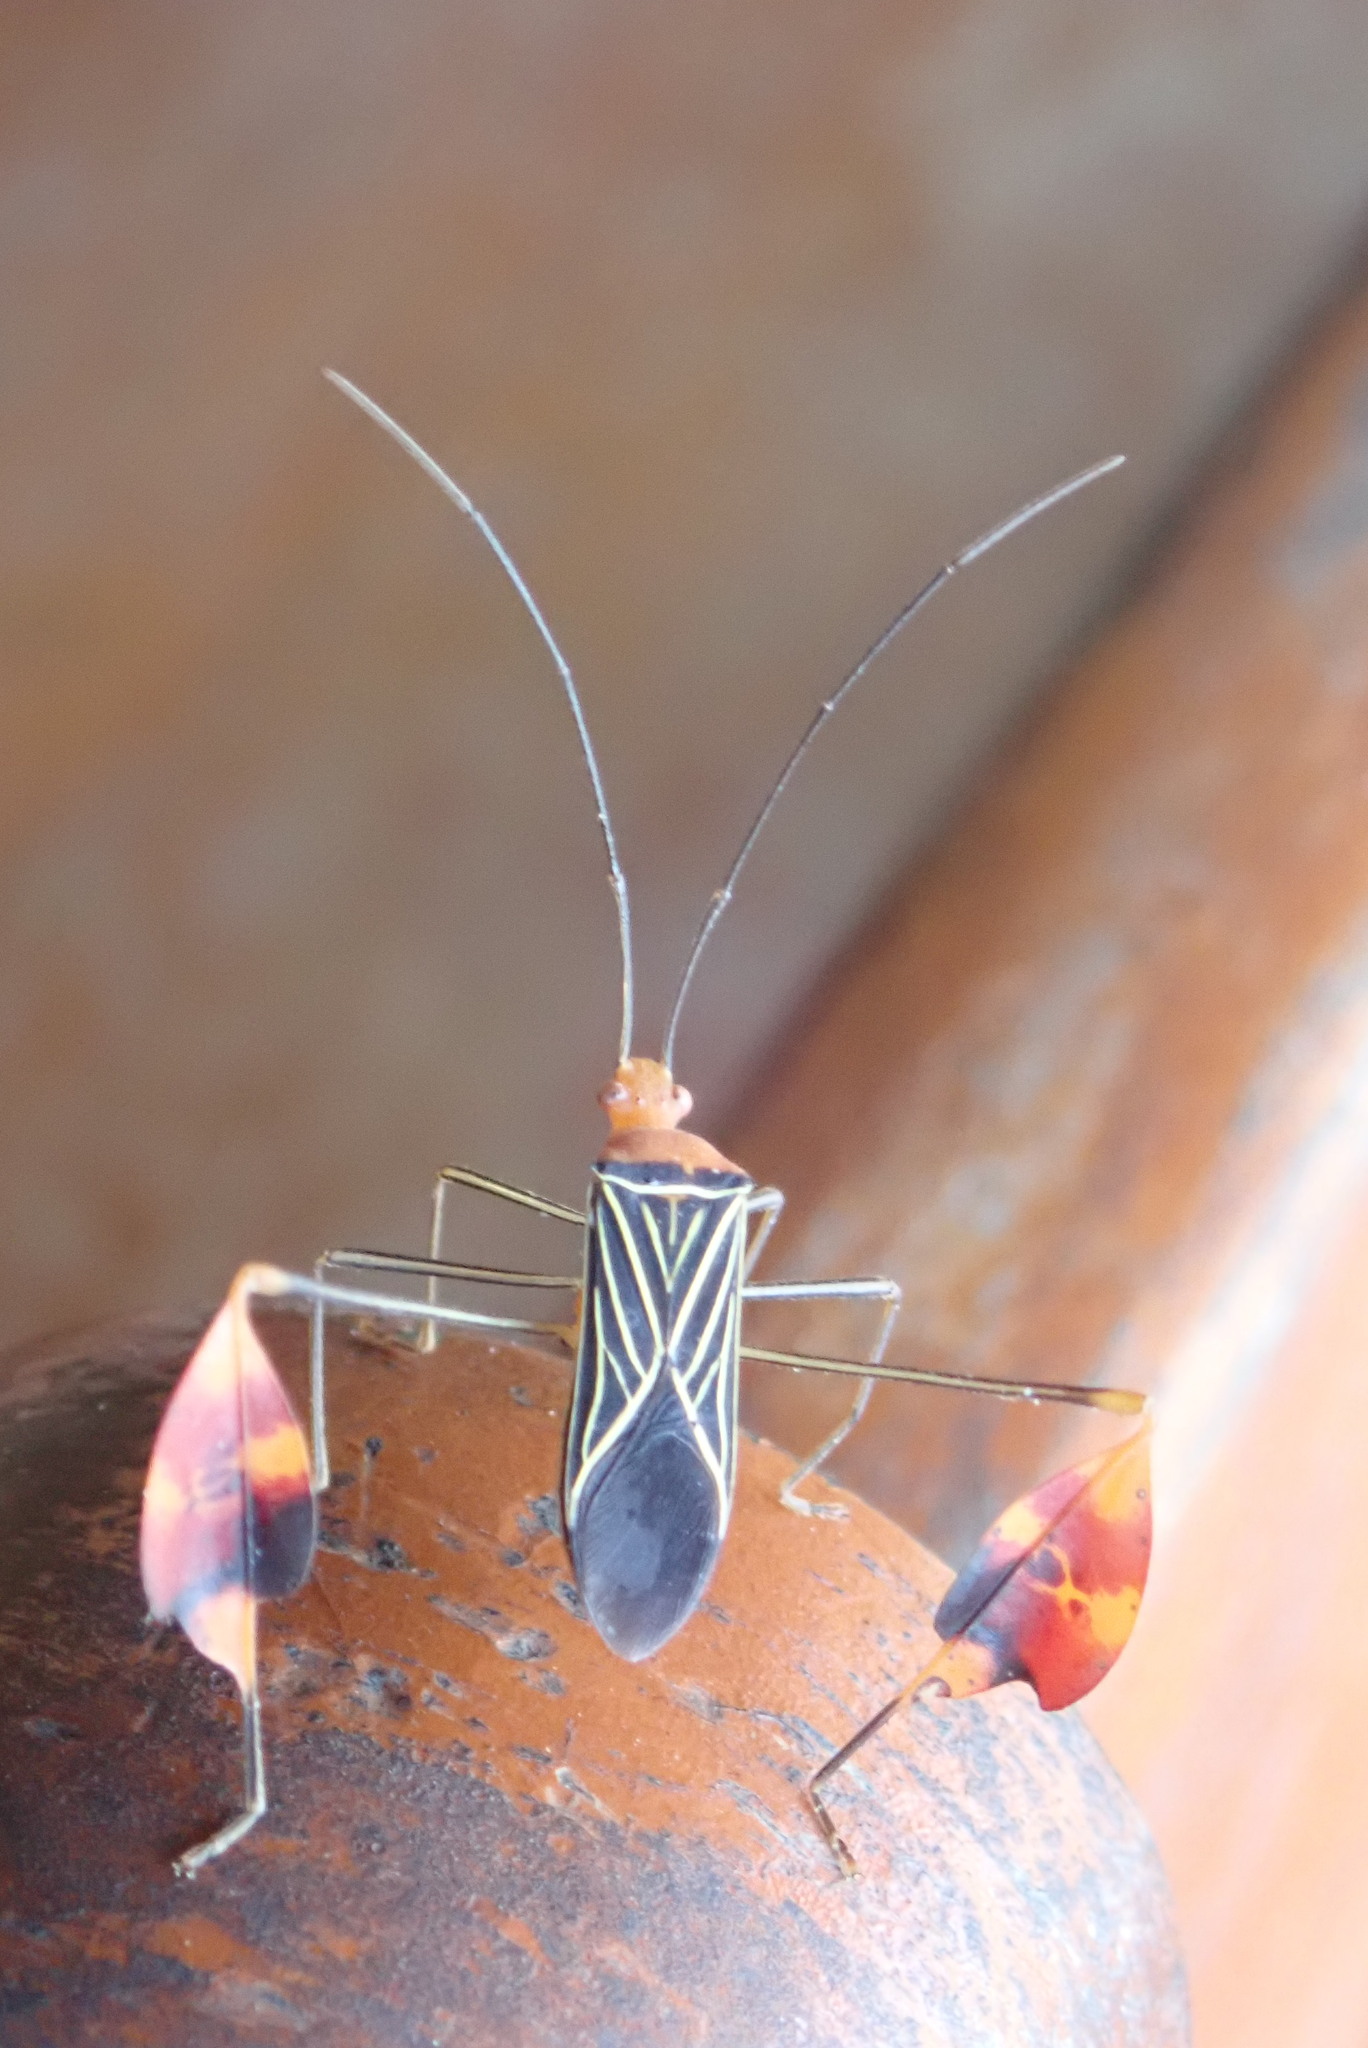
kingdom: Animalia
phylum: Arthropoda
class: Insecta
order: Hemiptera
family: Coreidae
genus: Bitta
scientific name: Bitta
